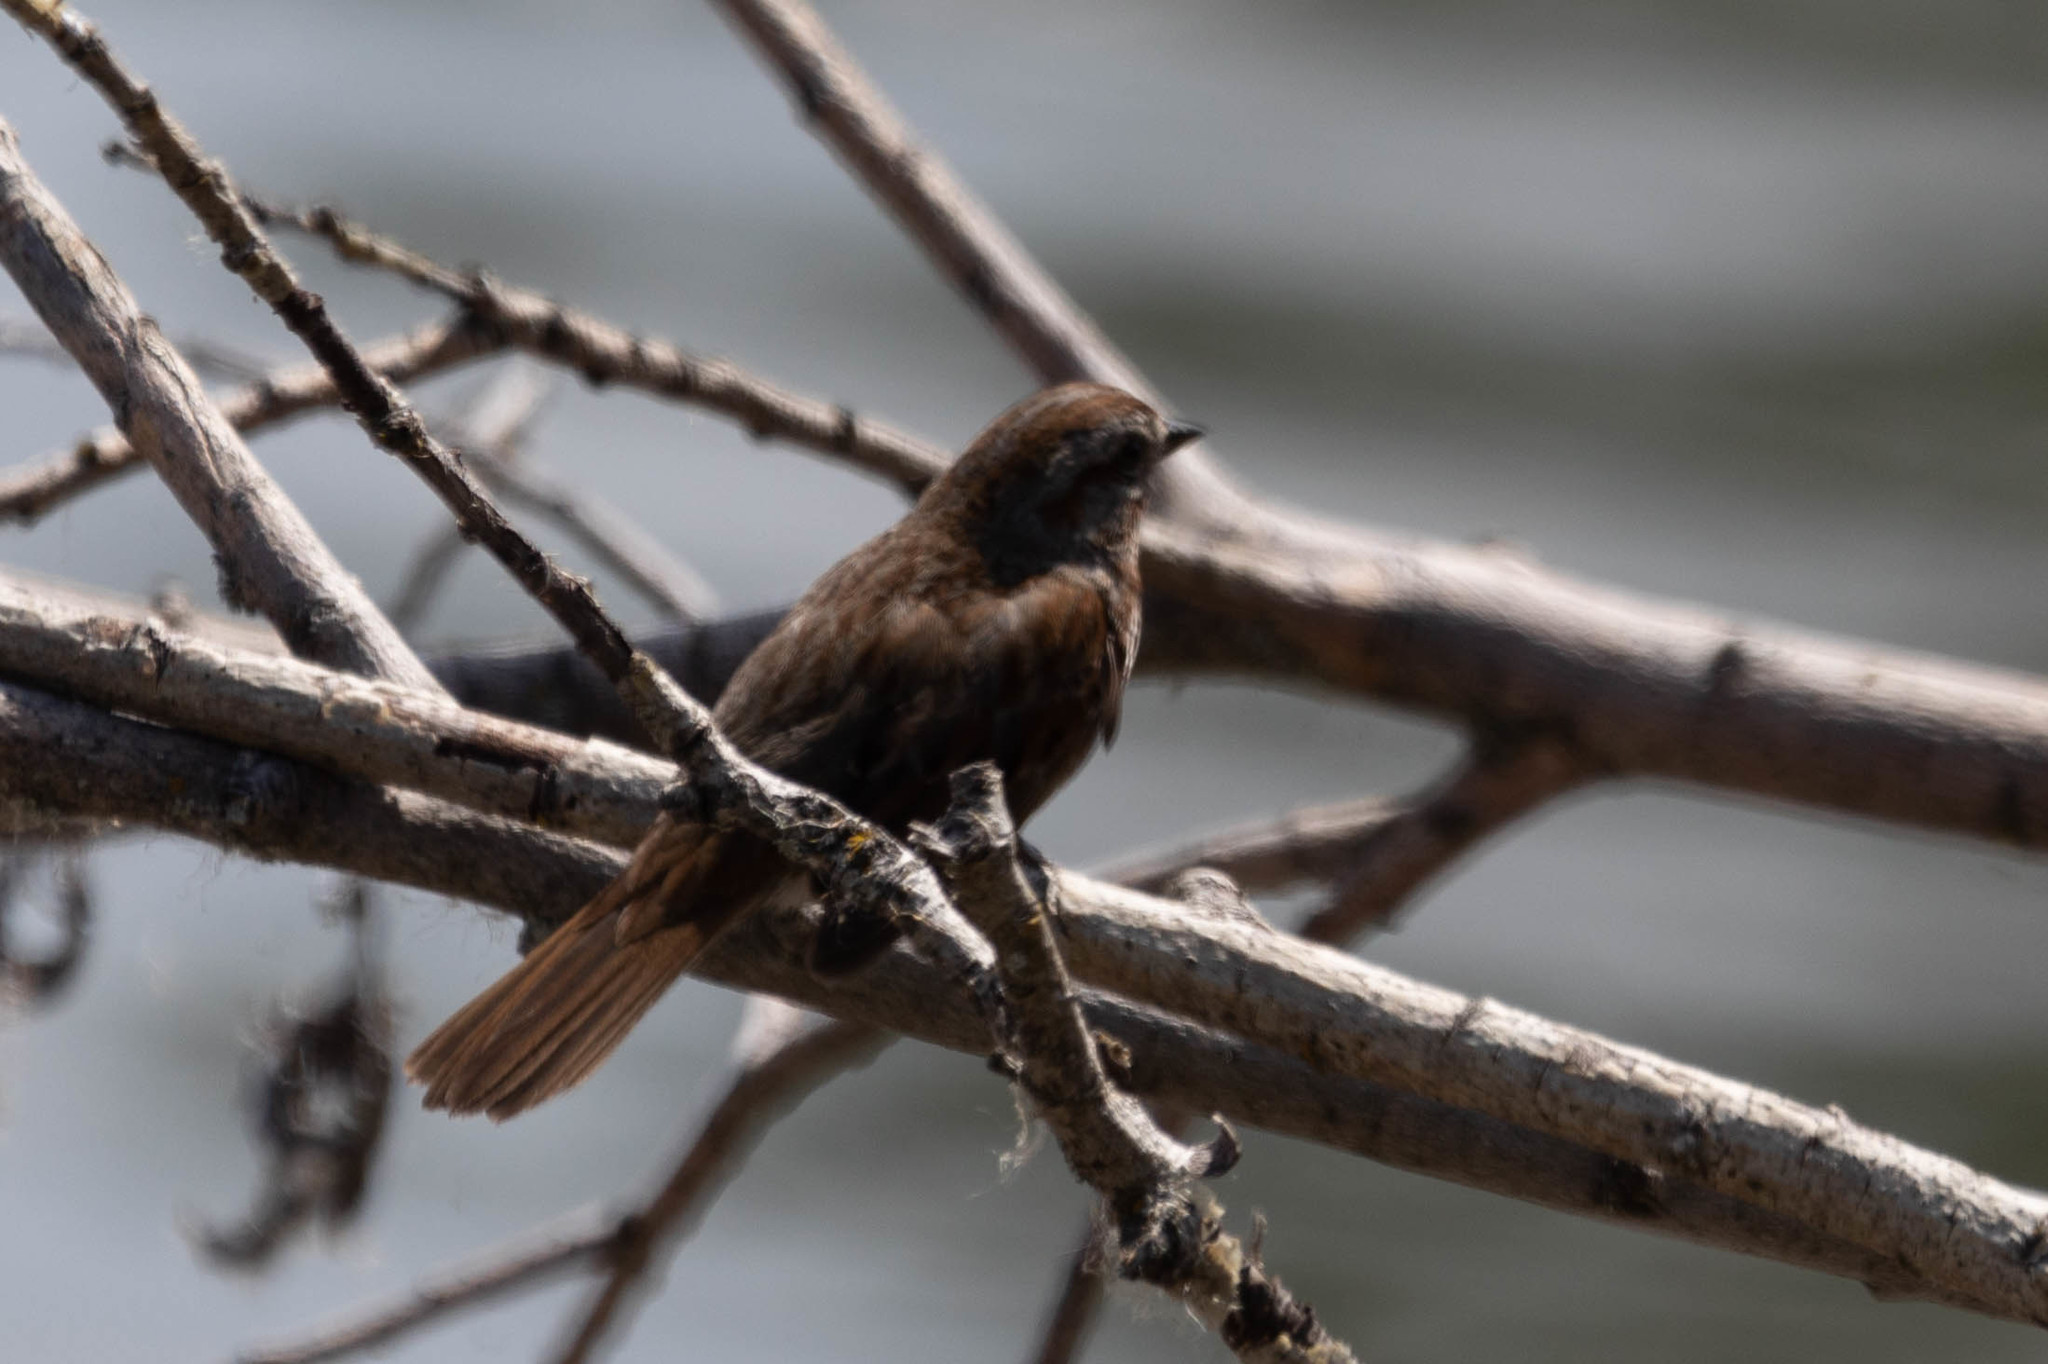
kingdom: Animalia
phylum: Chordata
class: Aves
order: Passeriformes
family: Passerellidae
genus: Melospiza
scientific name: Melospiza melodia
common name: Song sparrow
